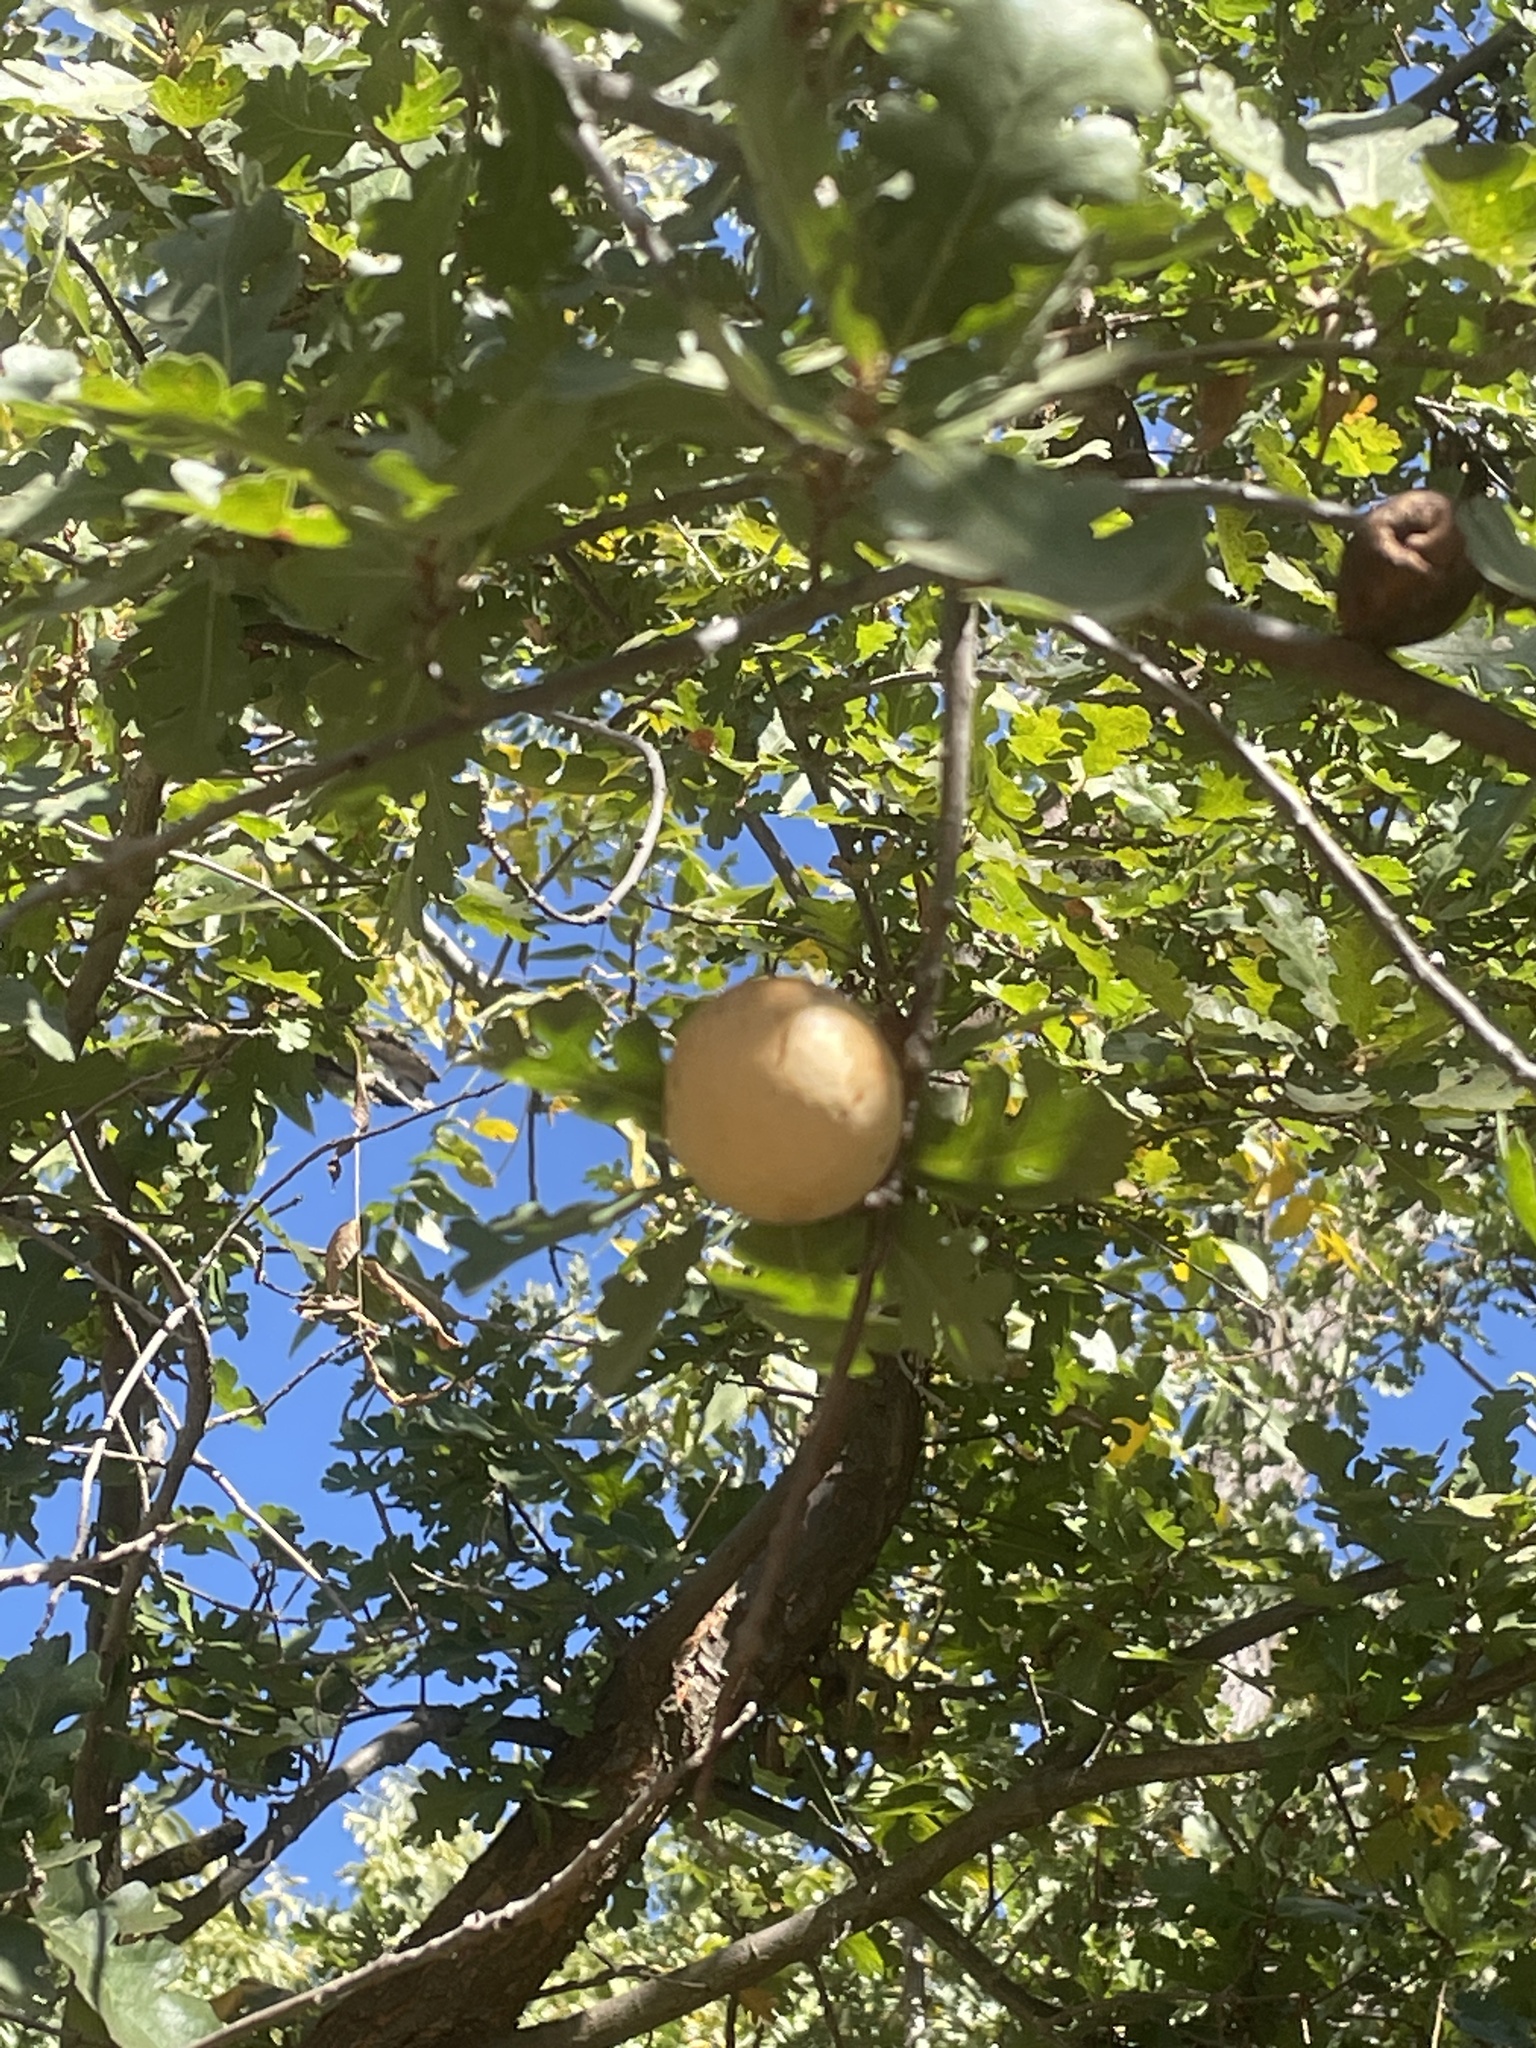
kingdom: Animalia
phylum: Arthropoda
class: Insecta
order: Hymenoptera
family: Cynipidae
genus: Andricus
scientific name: Andricus quercuscalifornicus
